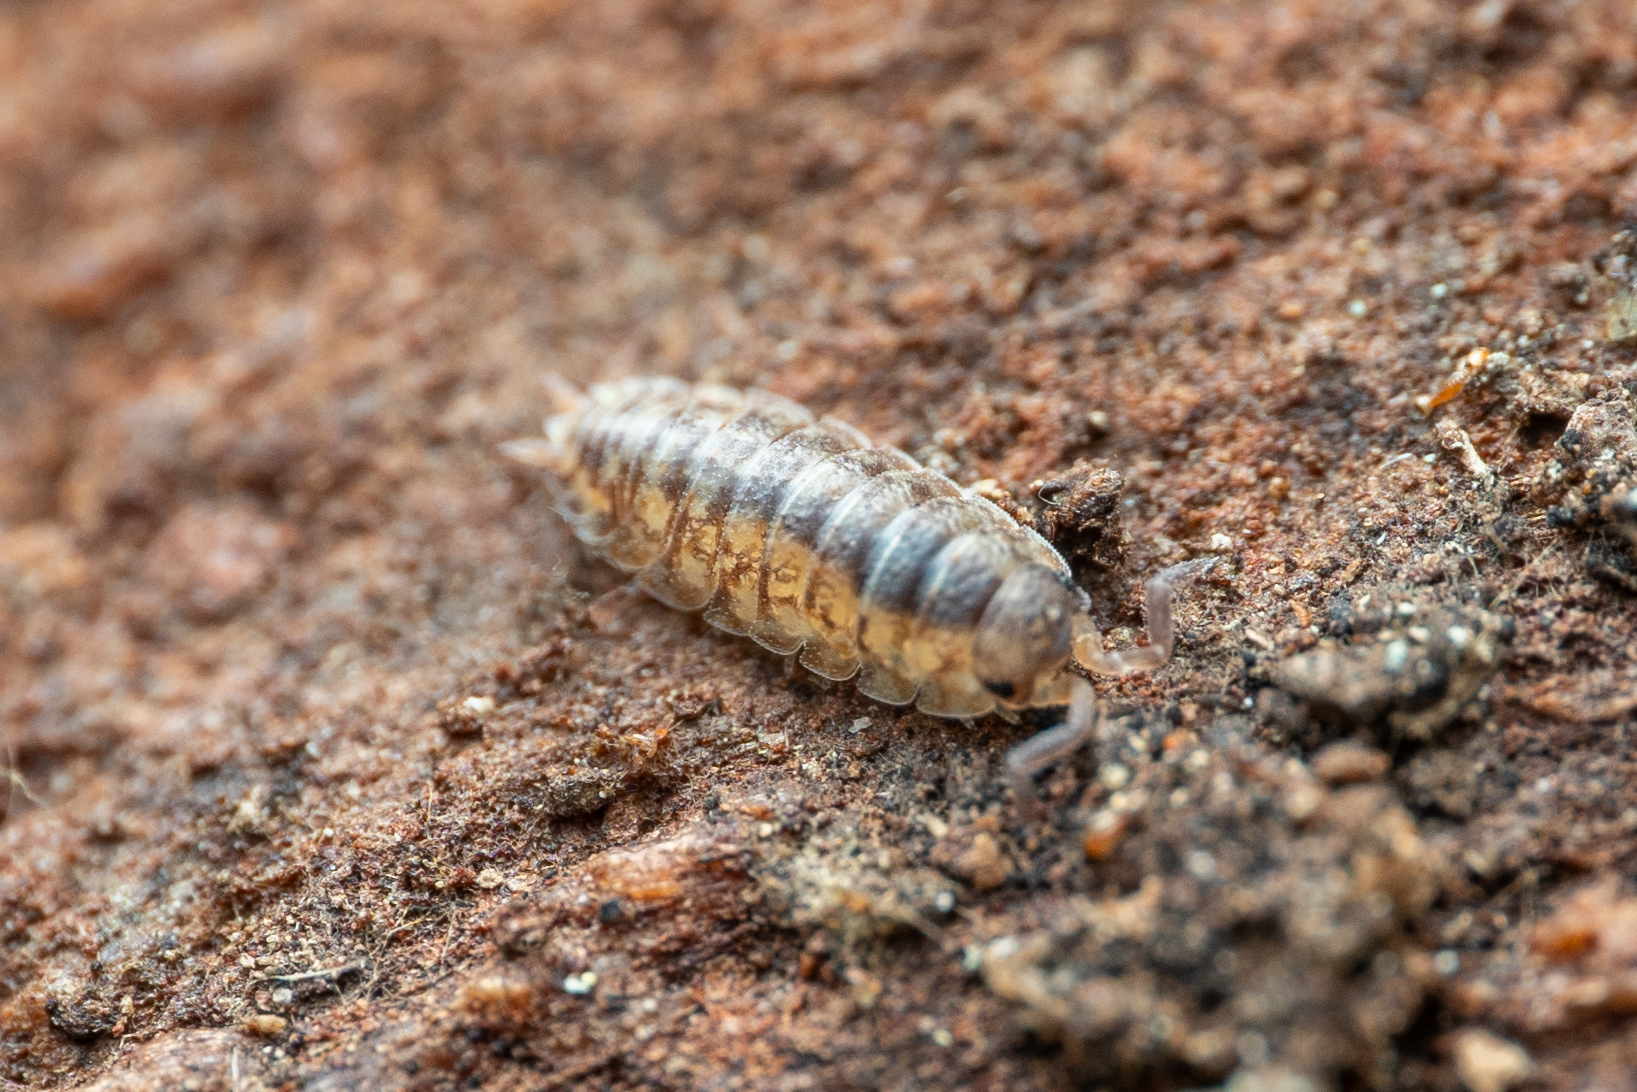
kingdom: Animalia
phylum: Arthropoda
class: Malacostraca
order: Isopoda
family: Porcellionidae
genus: Porcellio
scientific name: Porcellio scaber
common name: Common rough woodlouse
